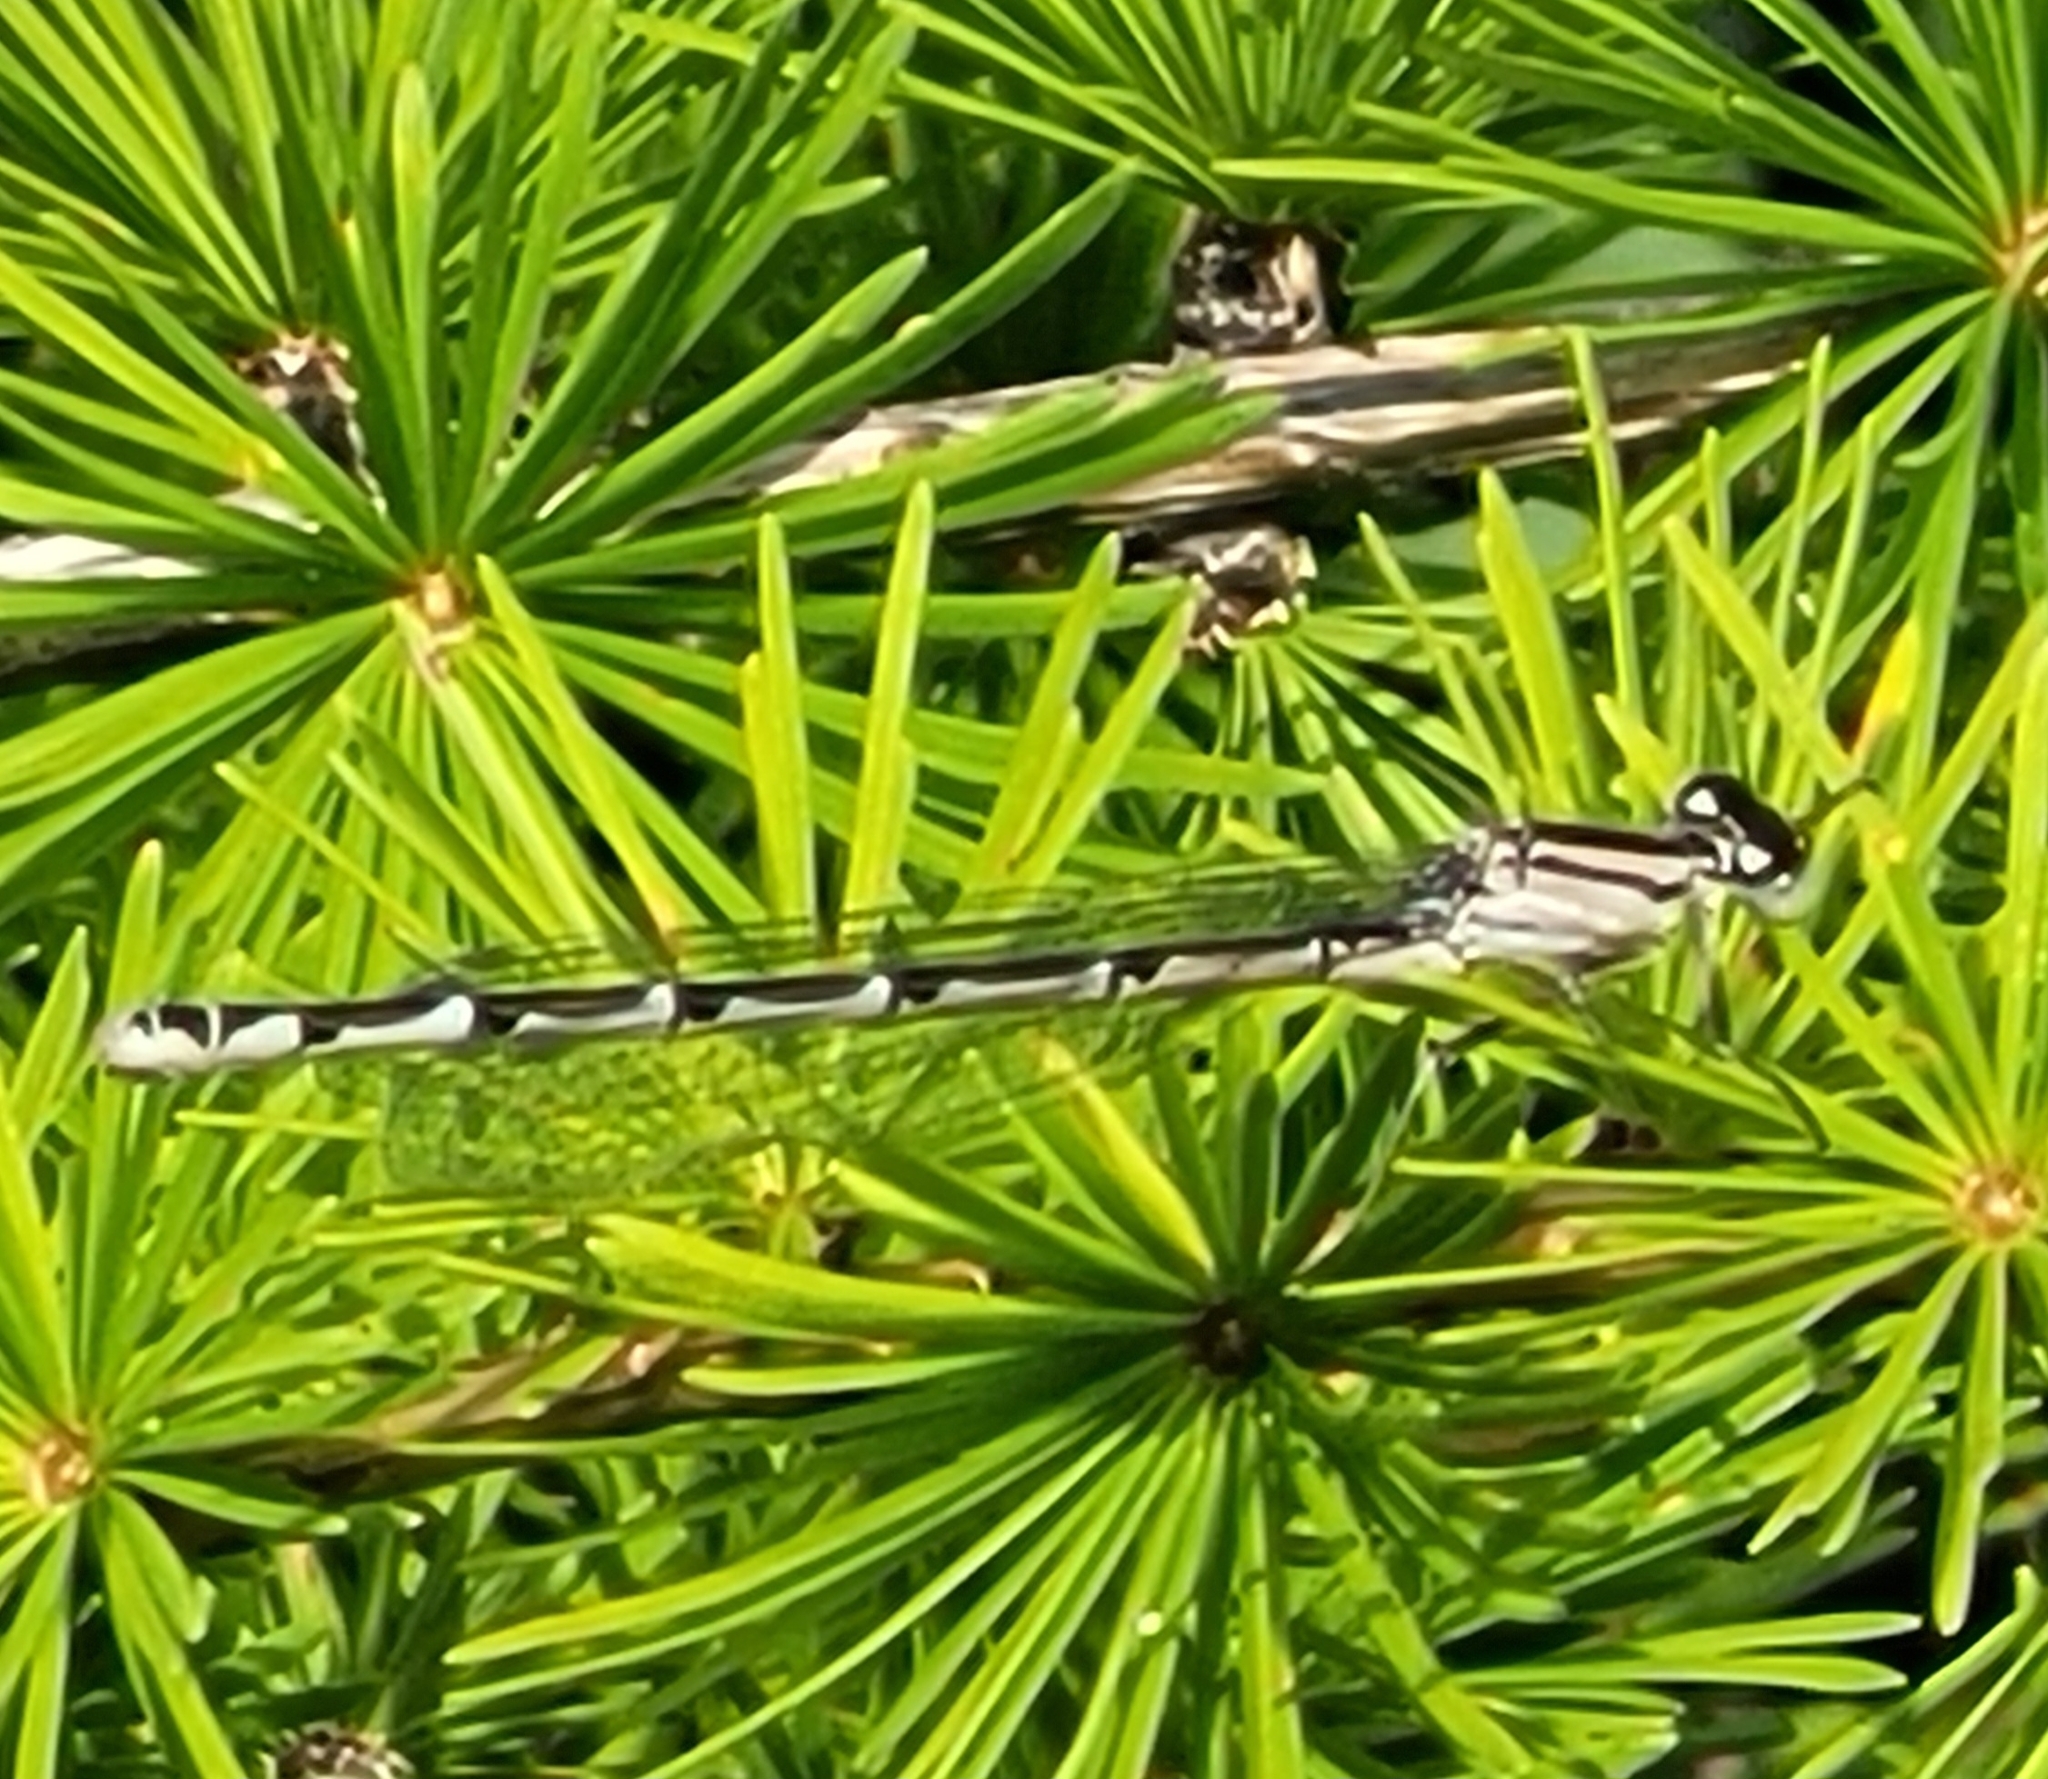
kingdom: Animalia
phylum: Arthropoda
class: Insecta
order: Odonata
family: Coenagrionidae
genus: Enallagma
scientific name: Enallagma cyathigerum
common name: Common blue damselfly
